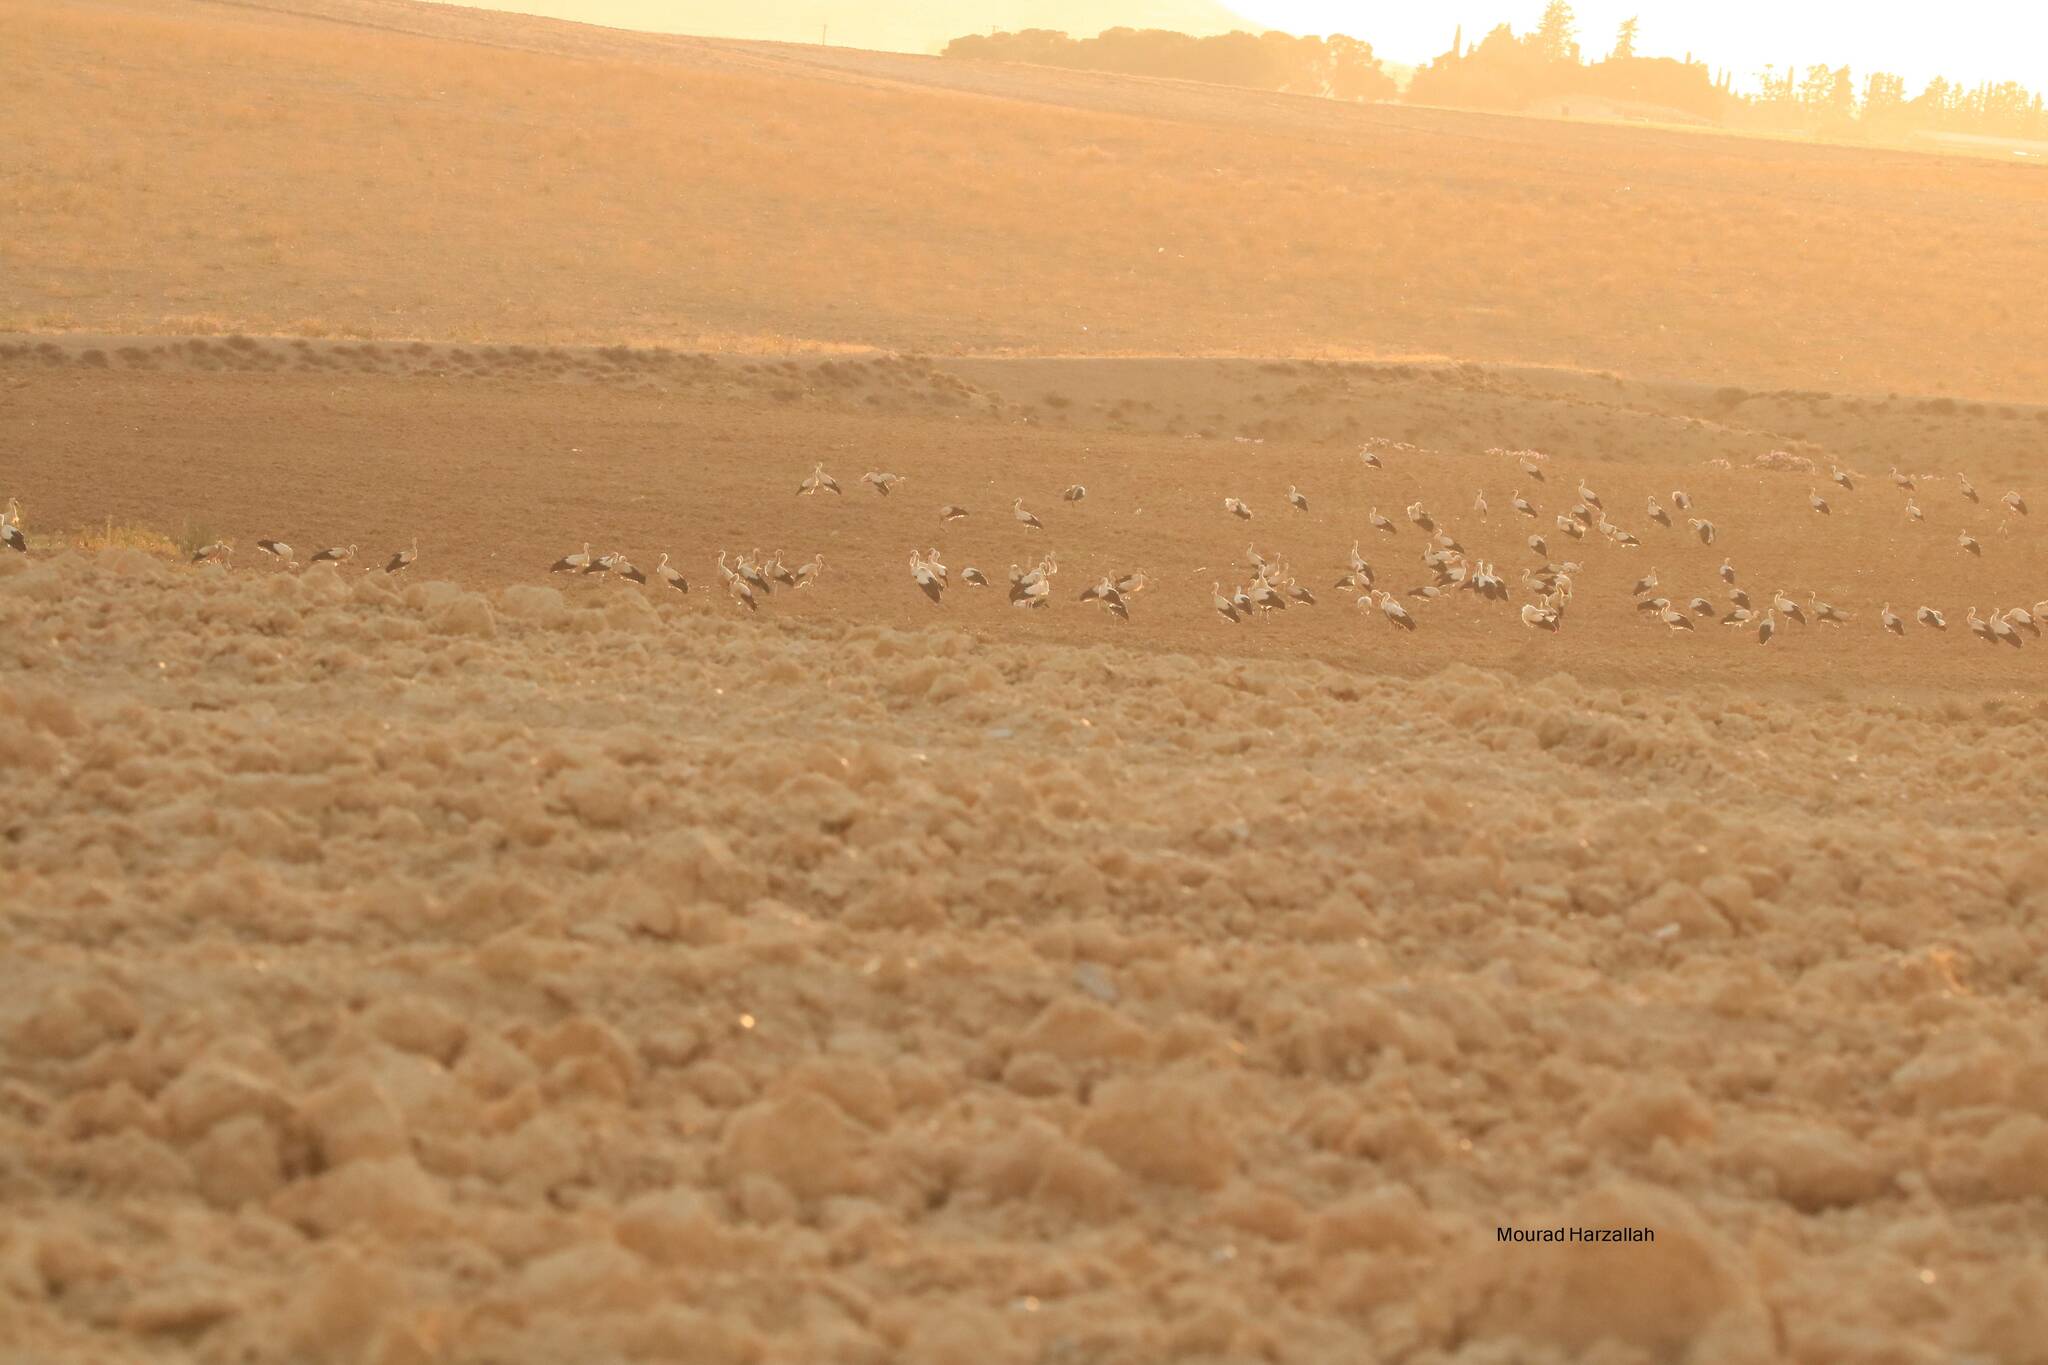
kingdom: Animalia
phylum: Chordata
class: Aves
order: Ciconiiformes
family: Ciconiidae
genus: Ciconia
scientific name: Ciconia ciconia
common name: White stork
